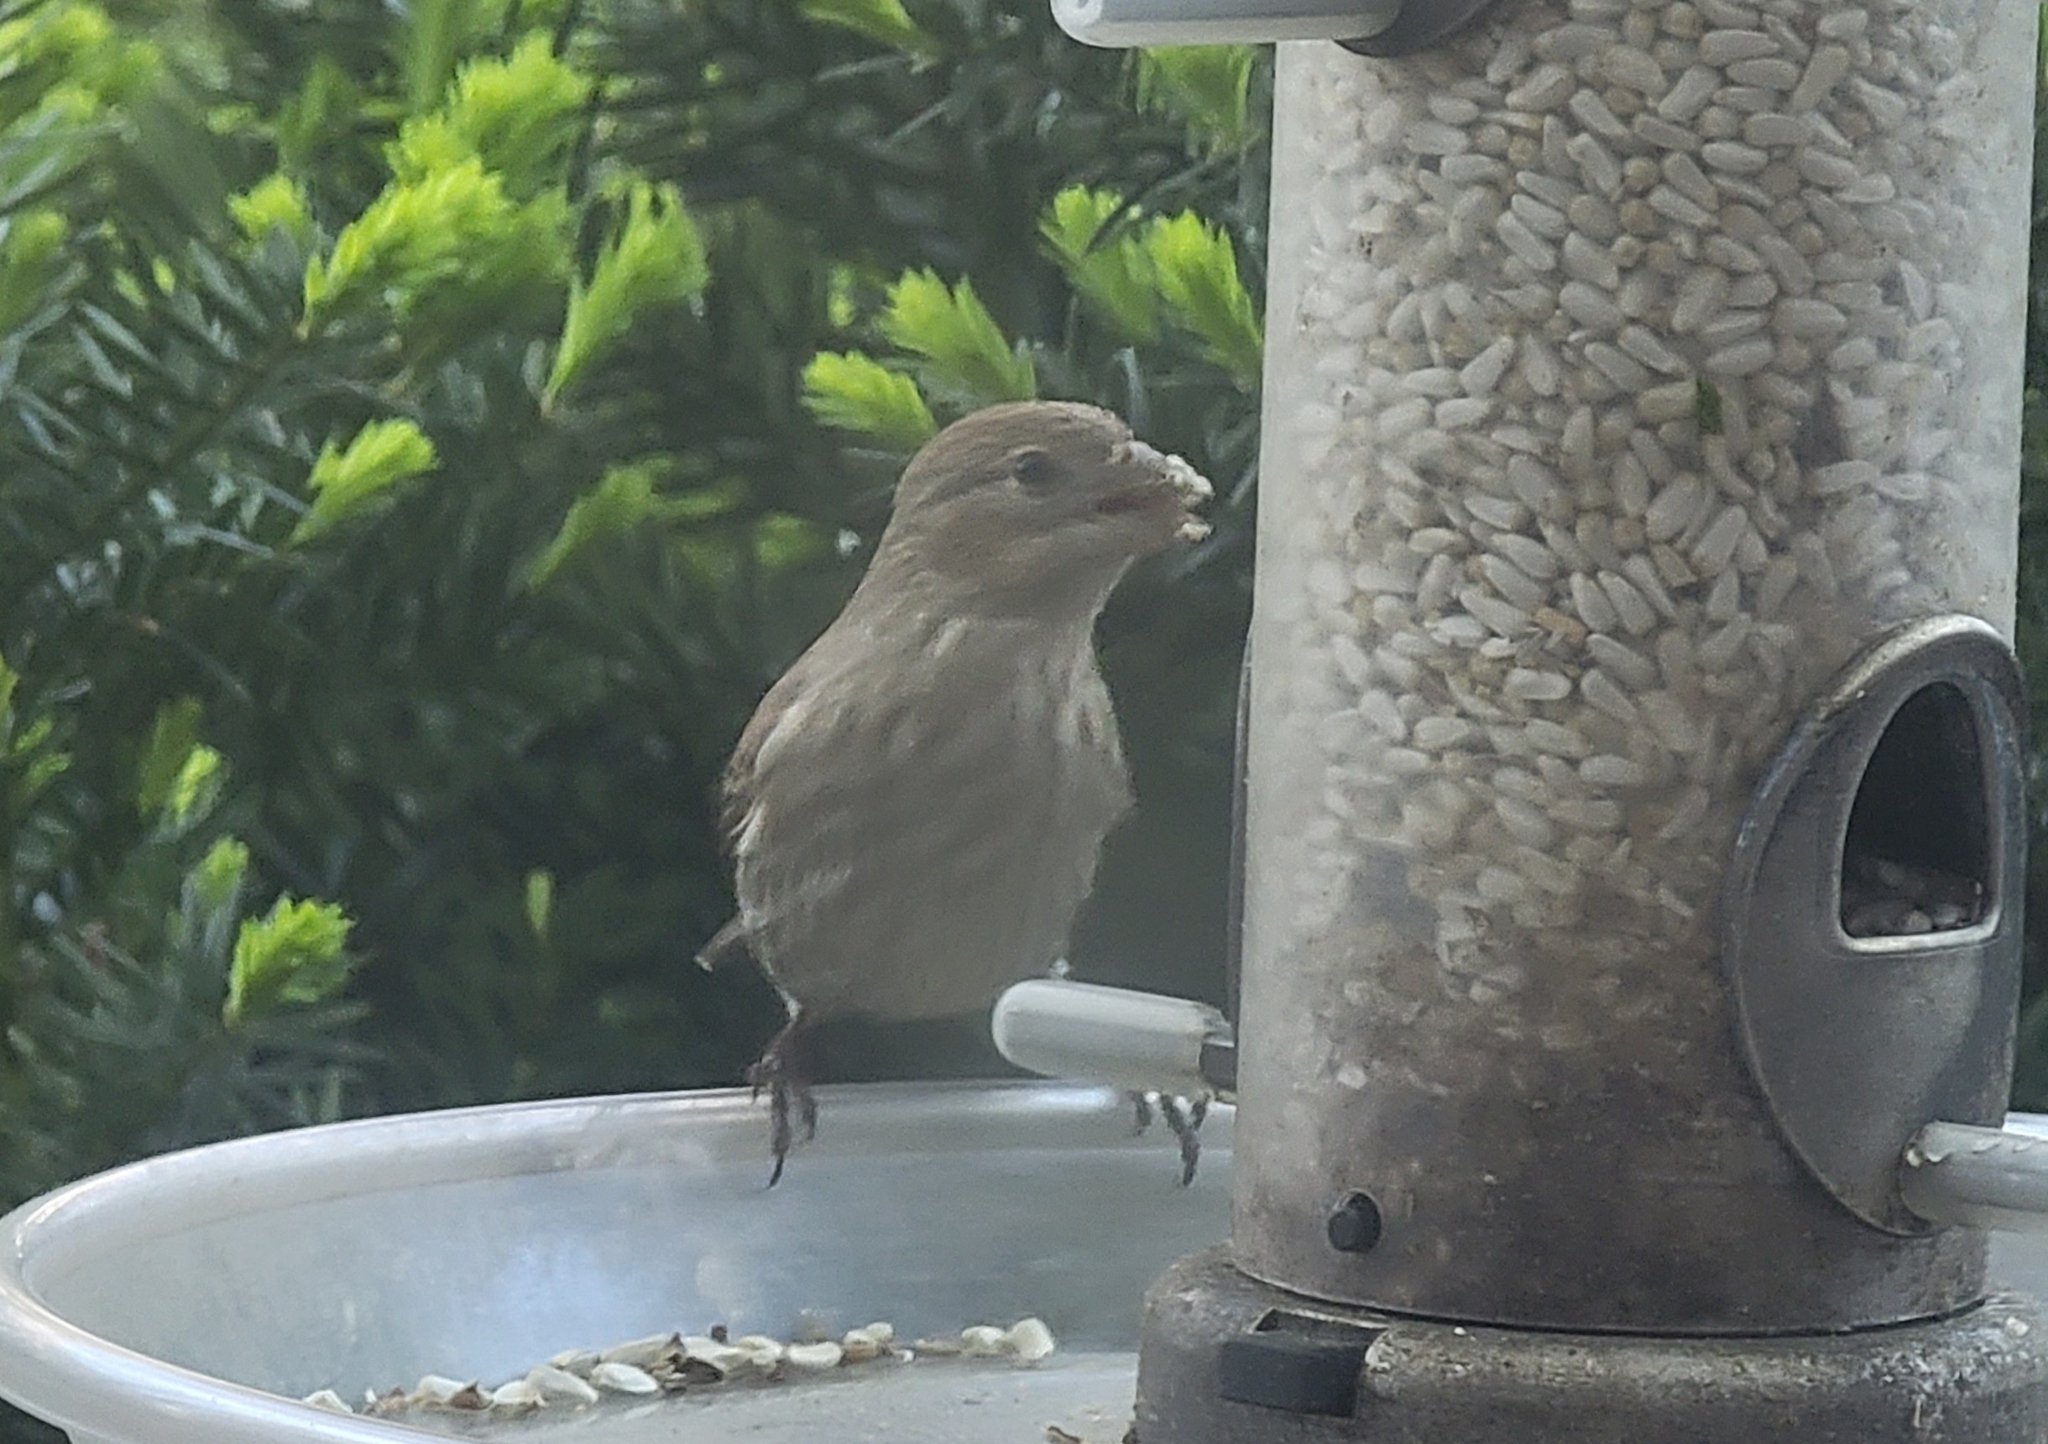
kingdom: Animalia
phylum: Chordata
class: Aves
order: Passeriformes
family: Fringillidae
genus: Haemorhous
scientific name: Haemorhous mexicanus
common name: House finch
